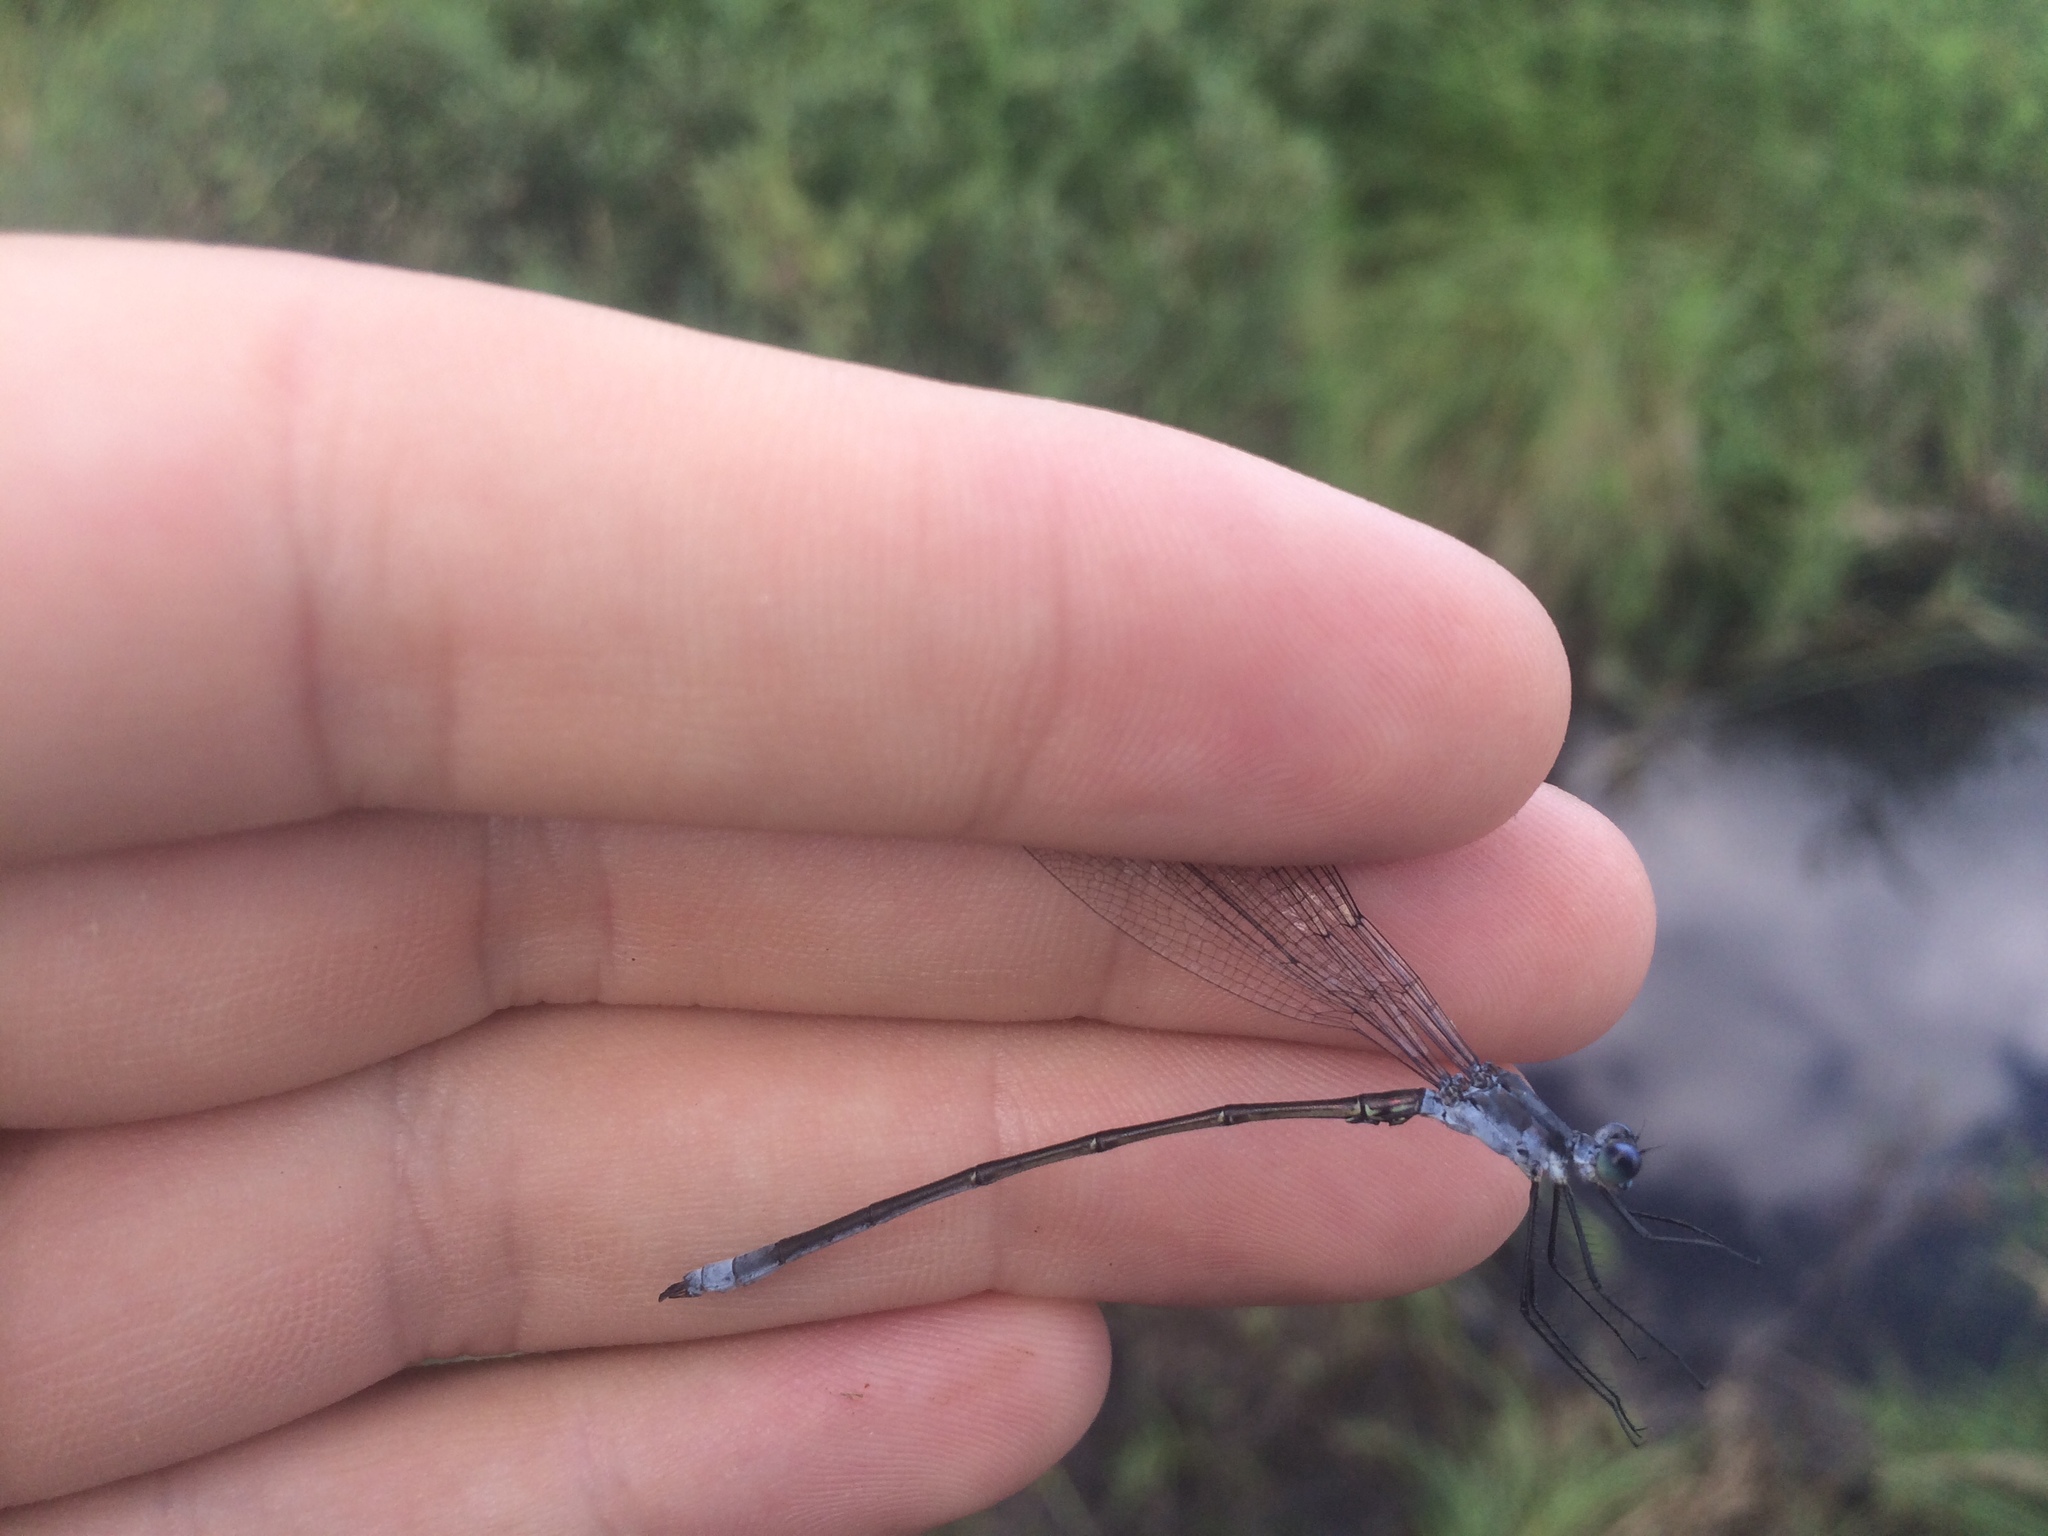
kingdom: Animalia
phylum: Arthropoda
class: Insecta
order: Odonata
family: Lestidae
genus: Lestes
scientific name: Lestes vigilax
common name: Swamp spreadwing
